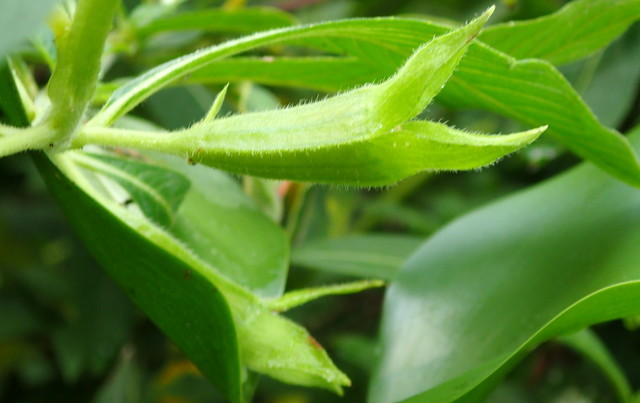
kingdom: Plantae
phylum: Tracheophyta
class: Magnoliopsida
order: Myrtales
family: Onagraceae
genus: Ludwigia
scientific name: Ludwigia peruviana
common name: Peruvian primrose-willow
